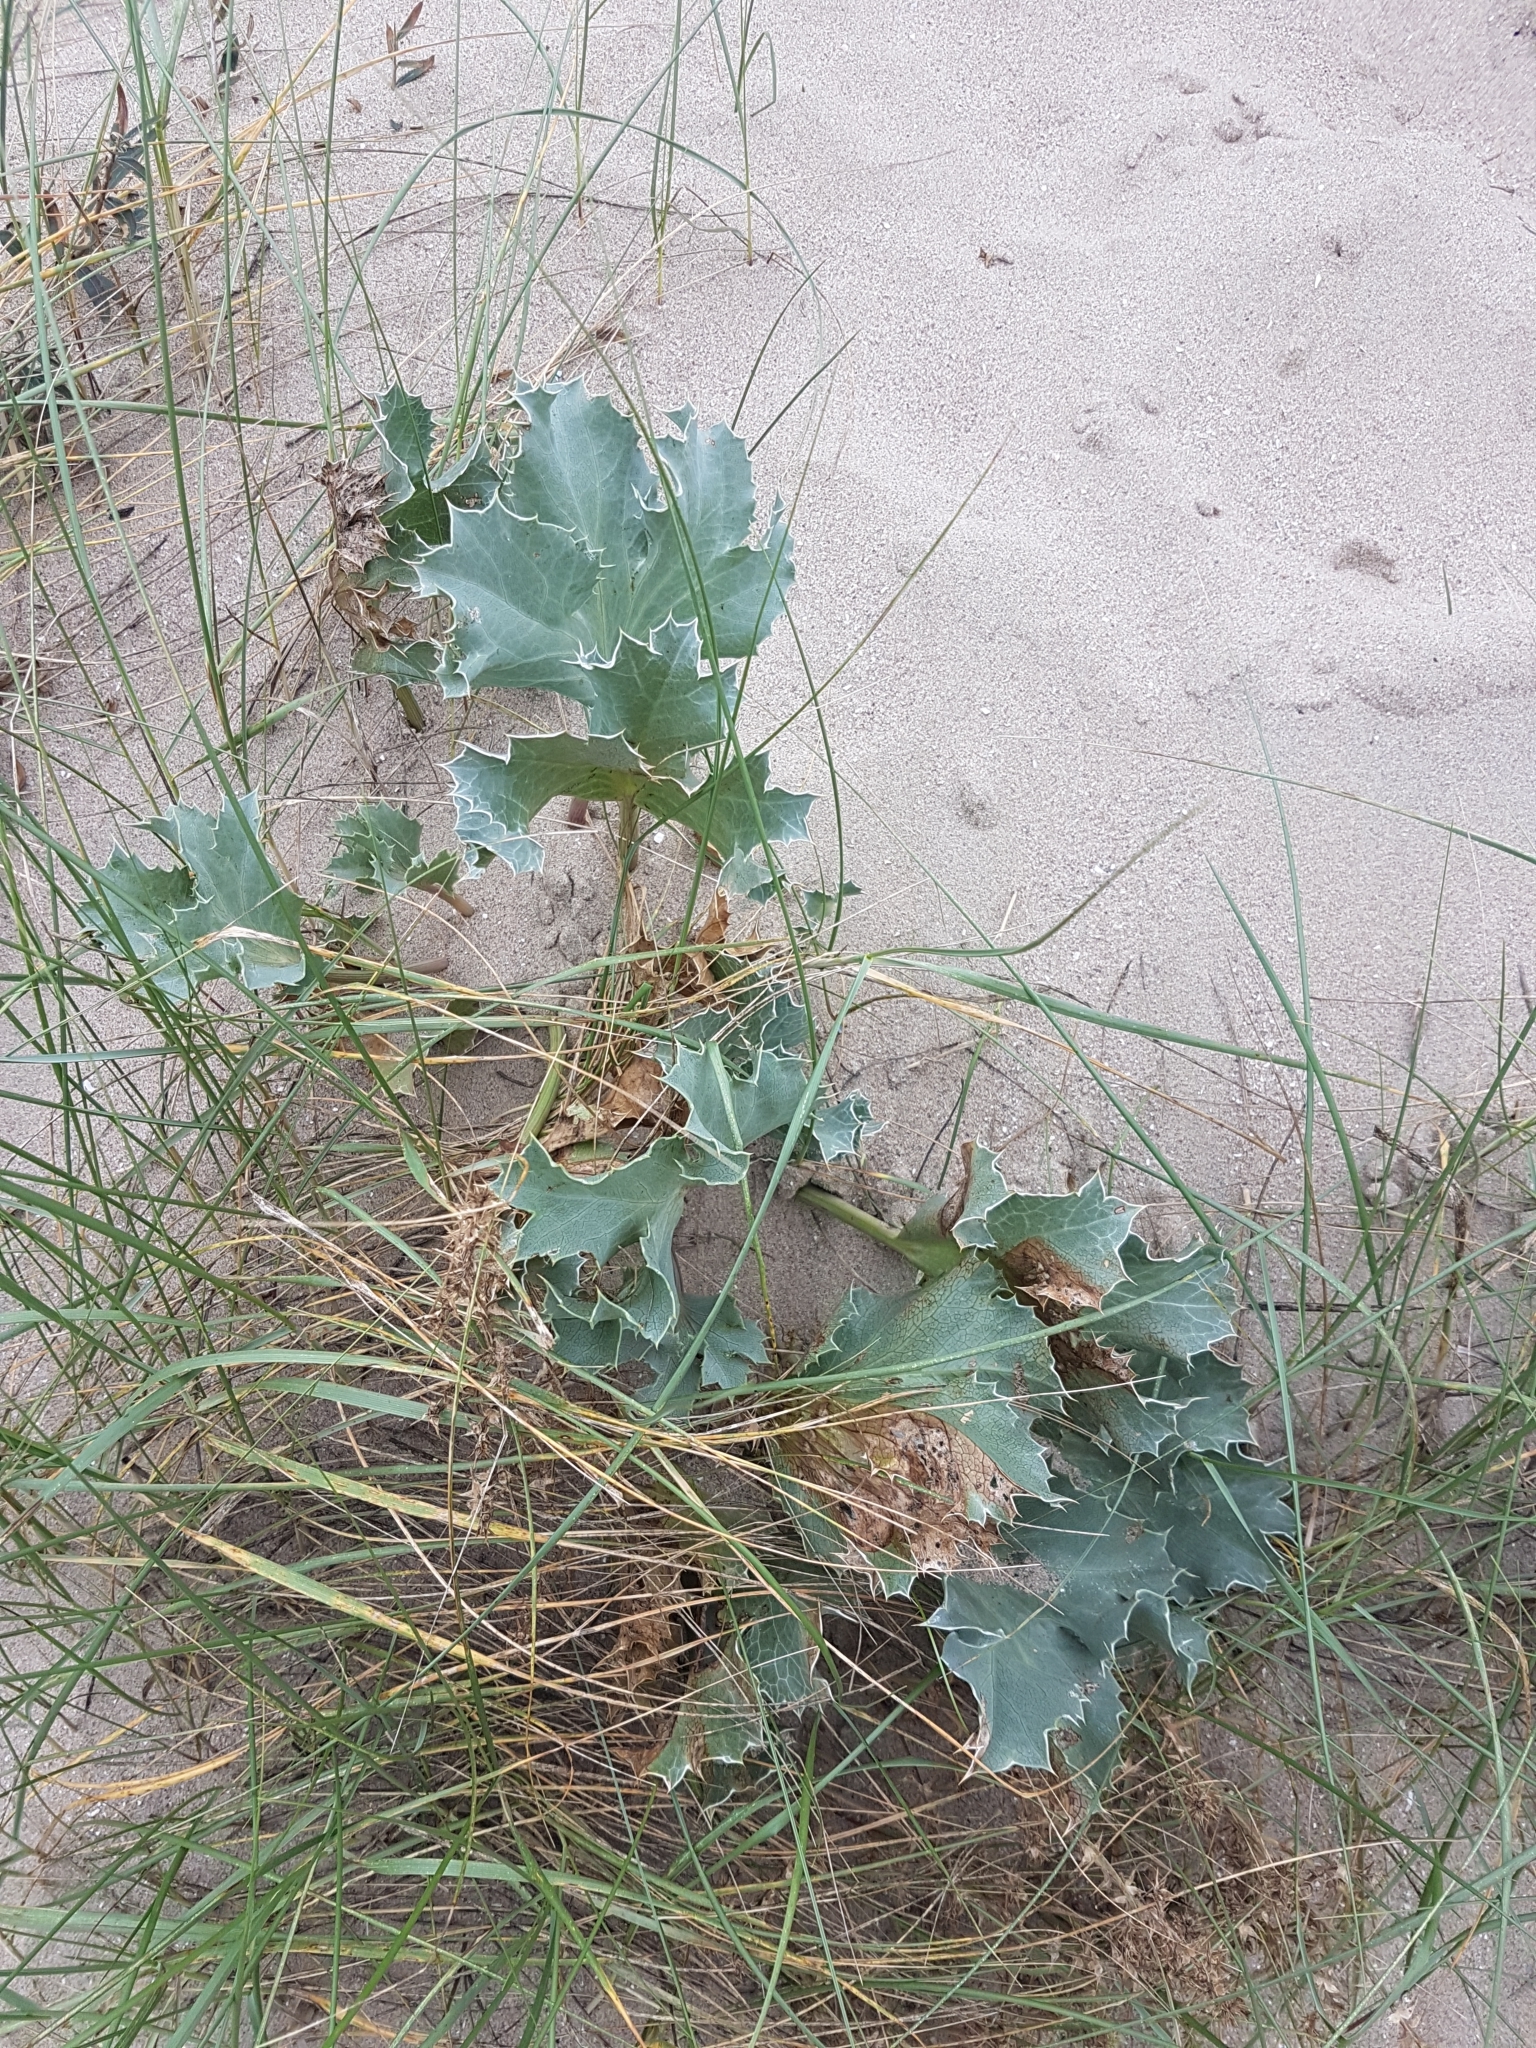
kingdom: Plantae
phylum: Tracheophyta
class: Magnoliopsida
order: Apiales
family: Apiaceae
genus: Eryngium
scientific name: Eryngium maritimum
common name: Sea-holly
